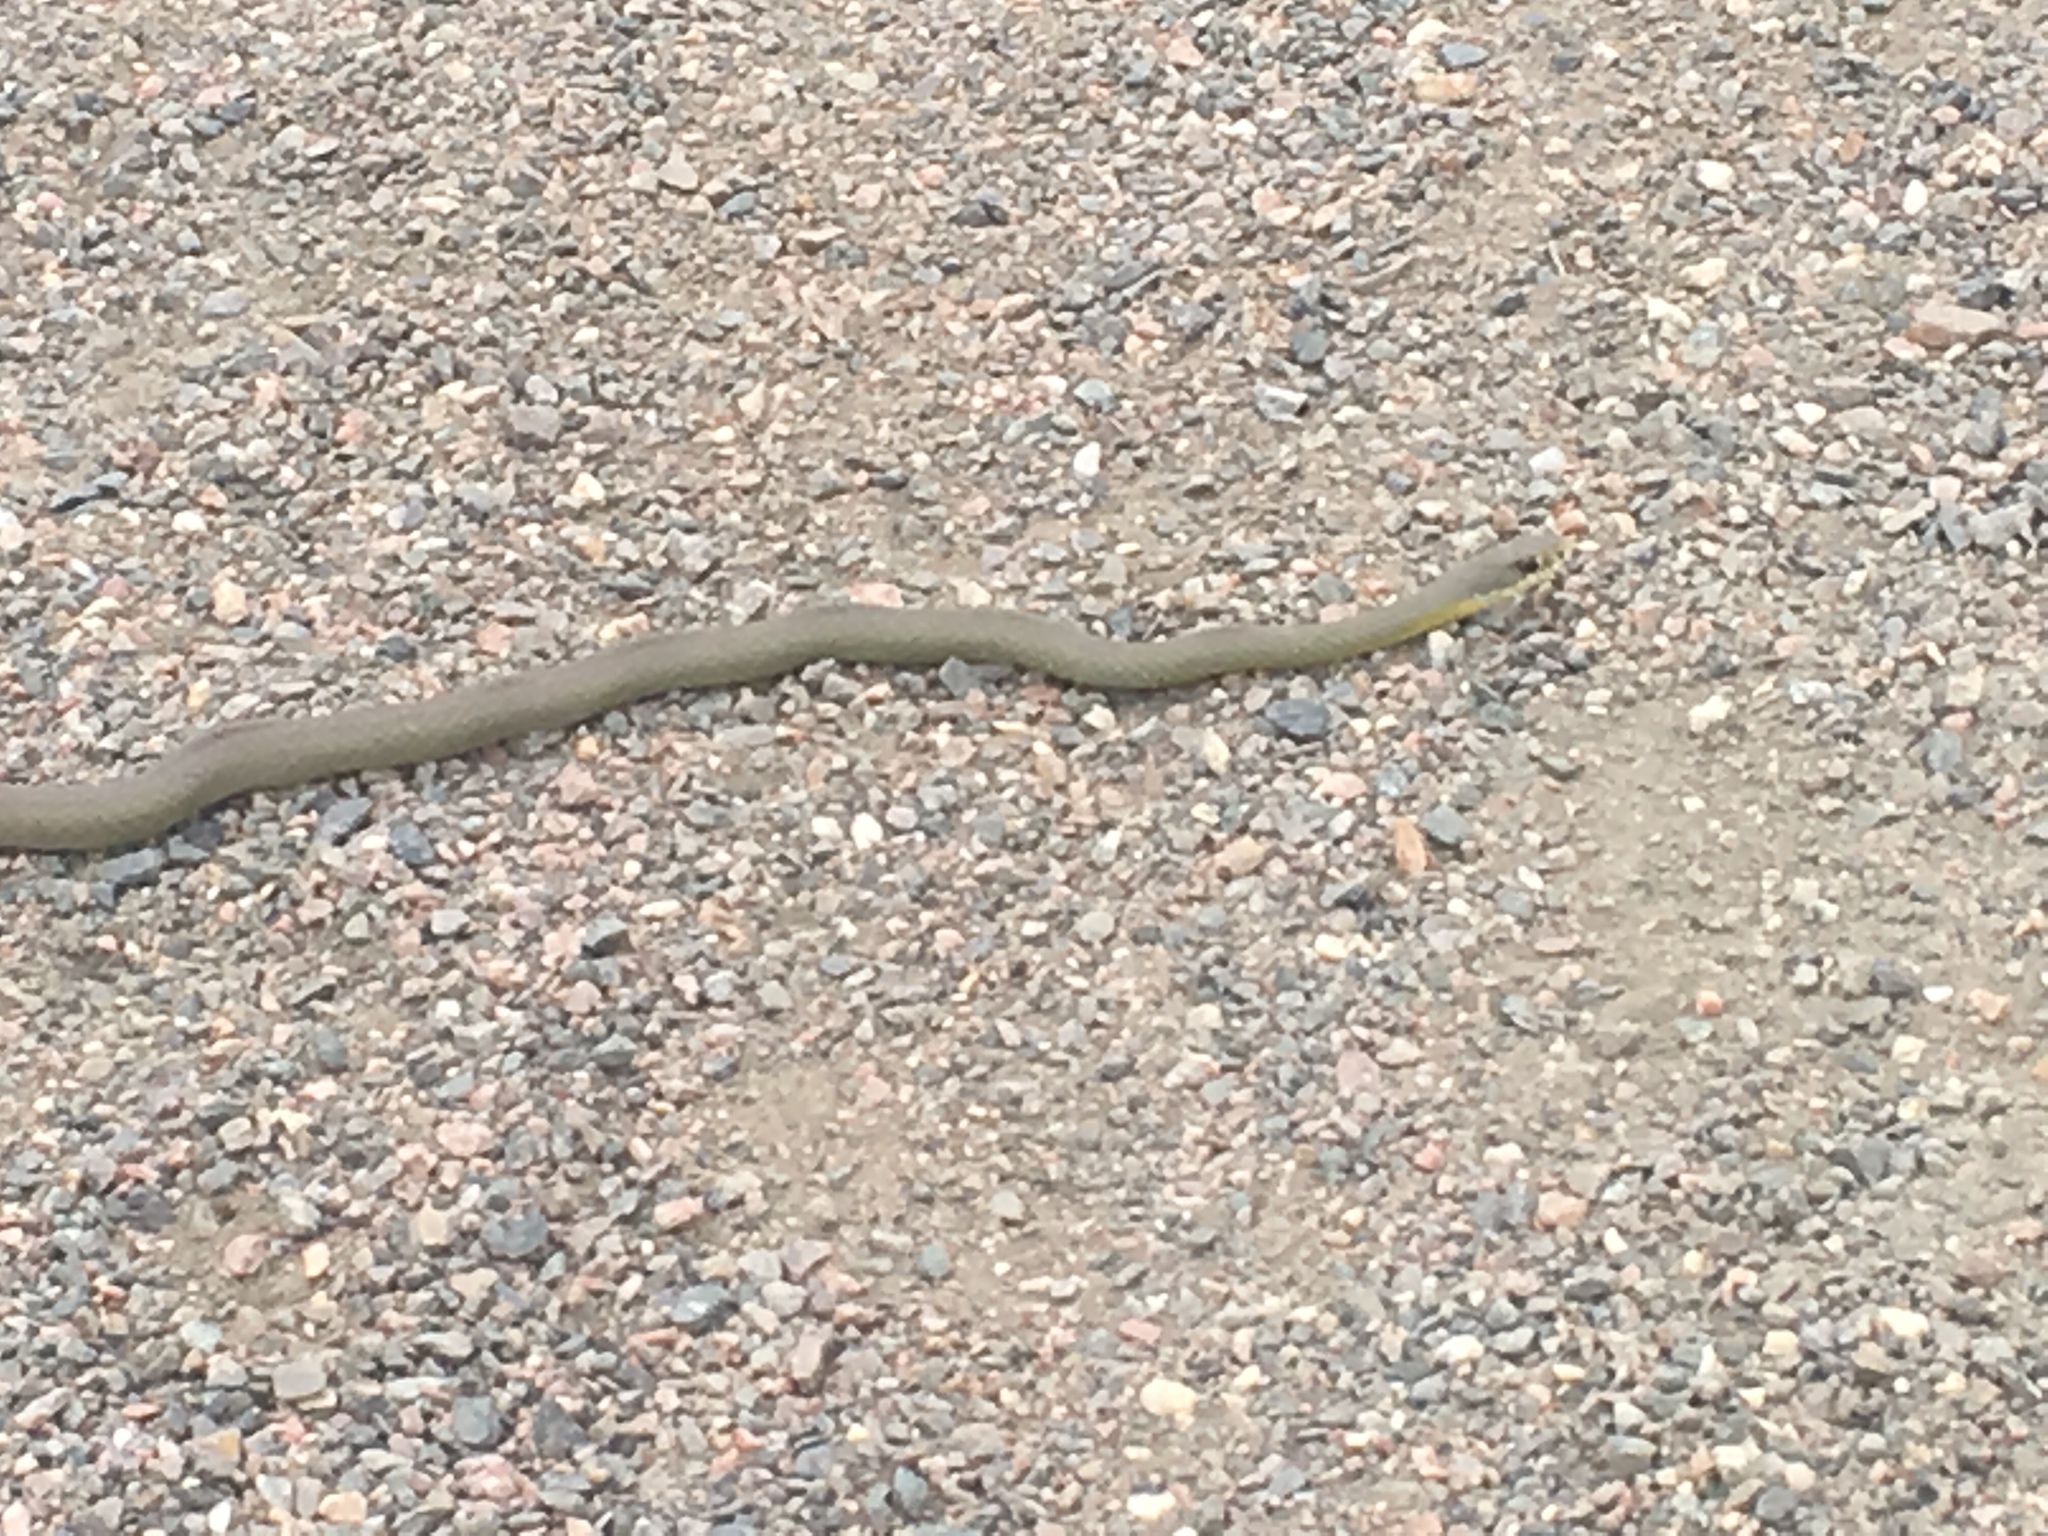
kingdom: Animalia
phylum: Chordata
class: Squamata
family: Colubridae
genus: Coluber
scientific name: Coluber constrictor
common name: Eastern racer
